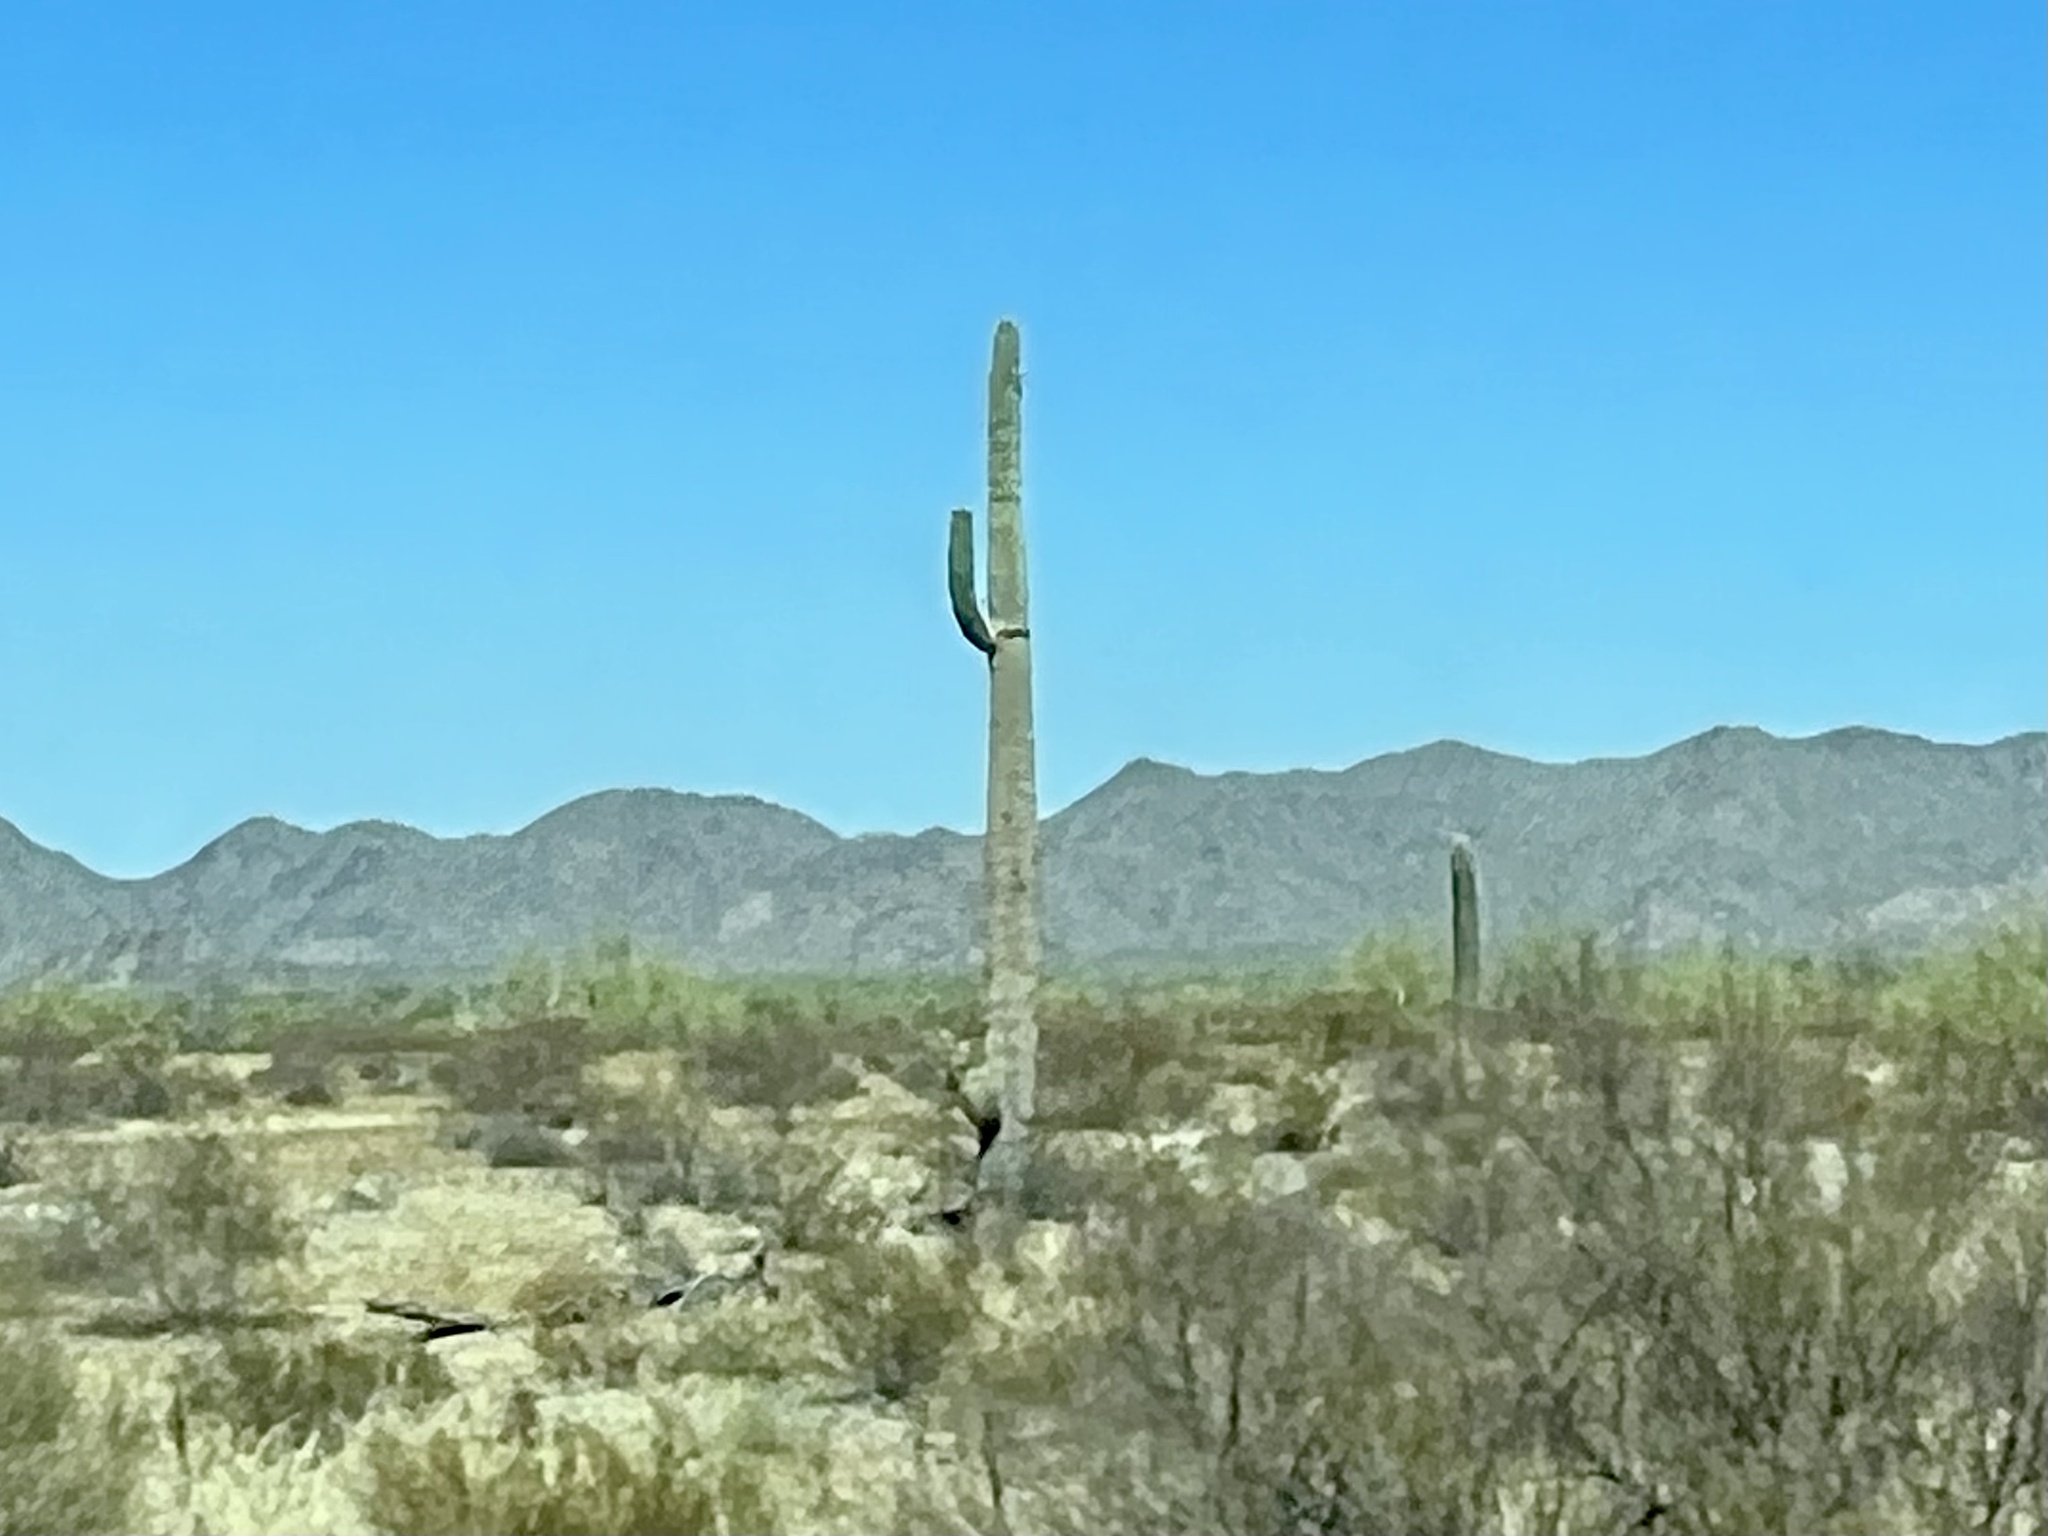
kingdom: Plantae
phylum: Tracheophyta
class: Magnoliopsida
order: Caryophyllales
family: Cactaceae
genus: Carnegiea
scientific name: Carnegiea gigantea
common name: Saguaro
